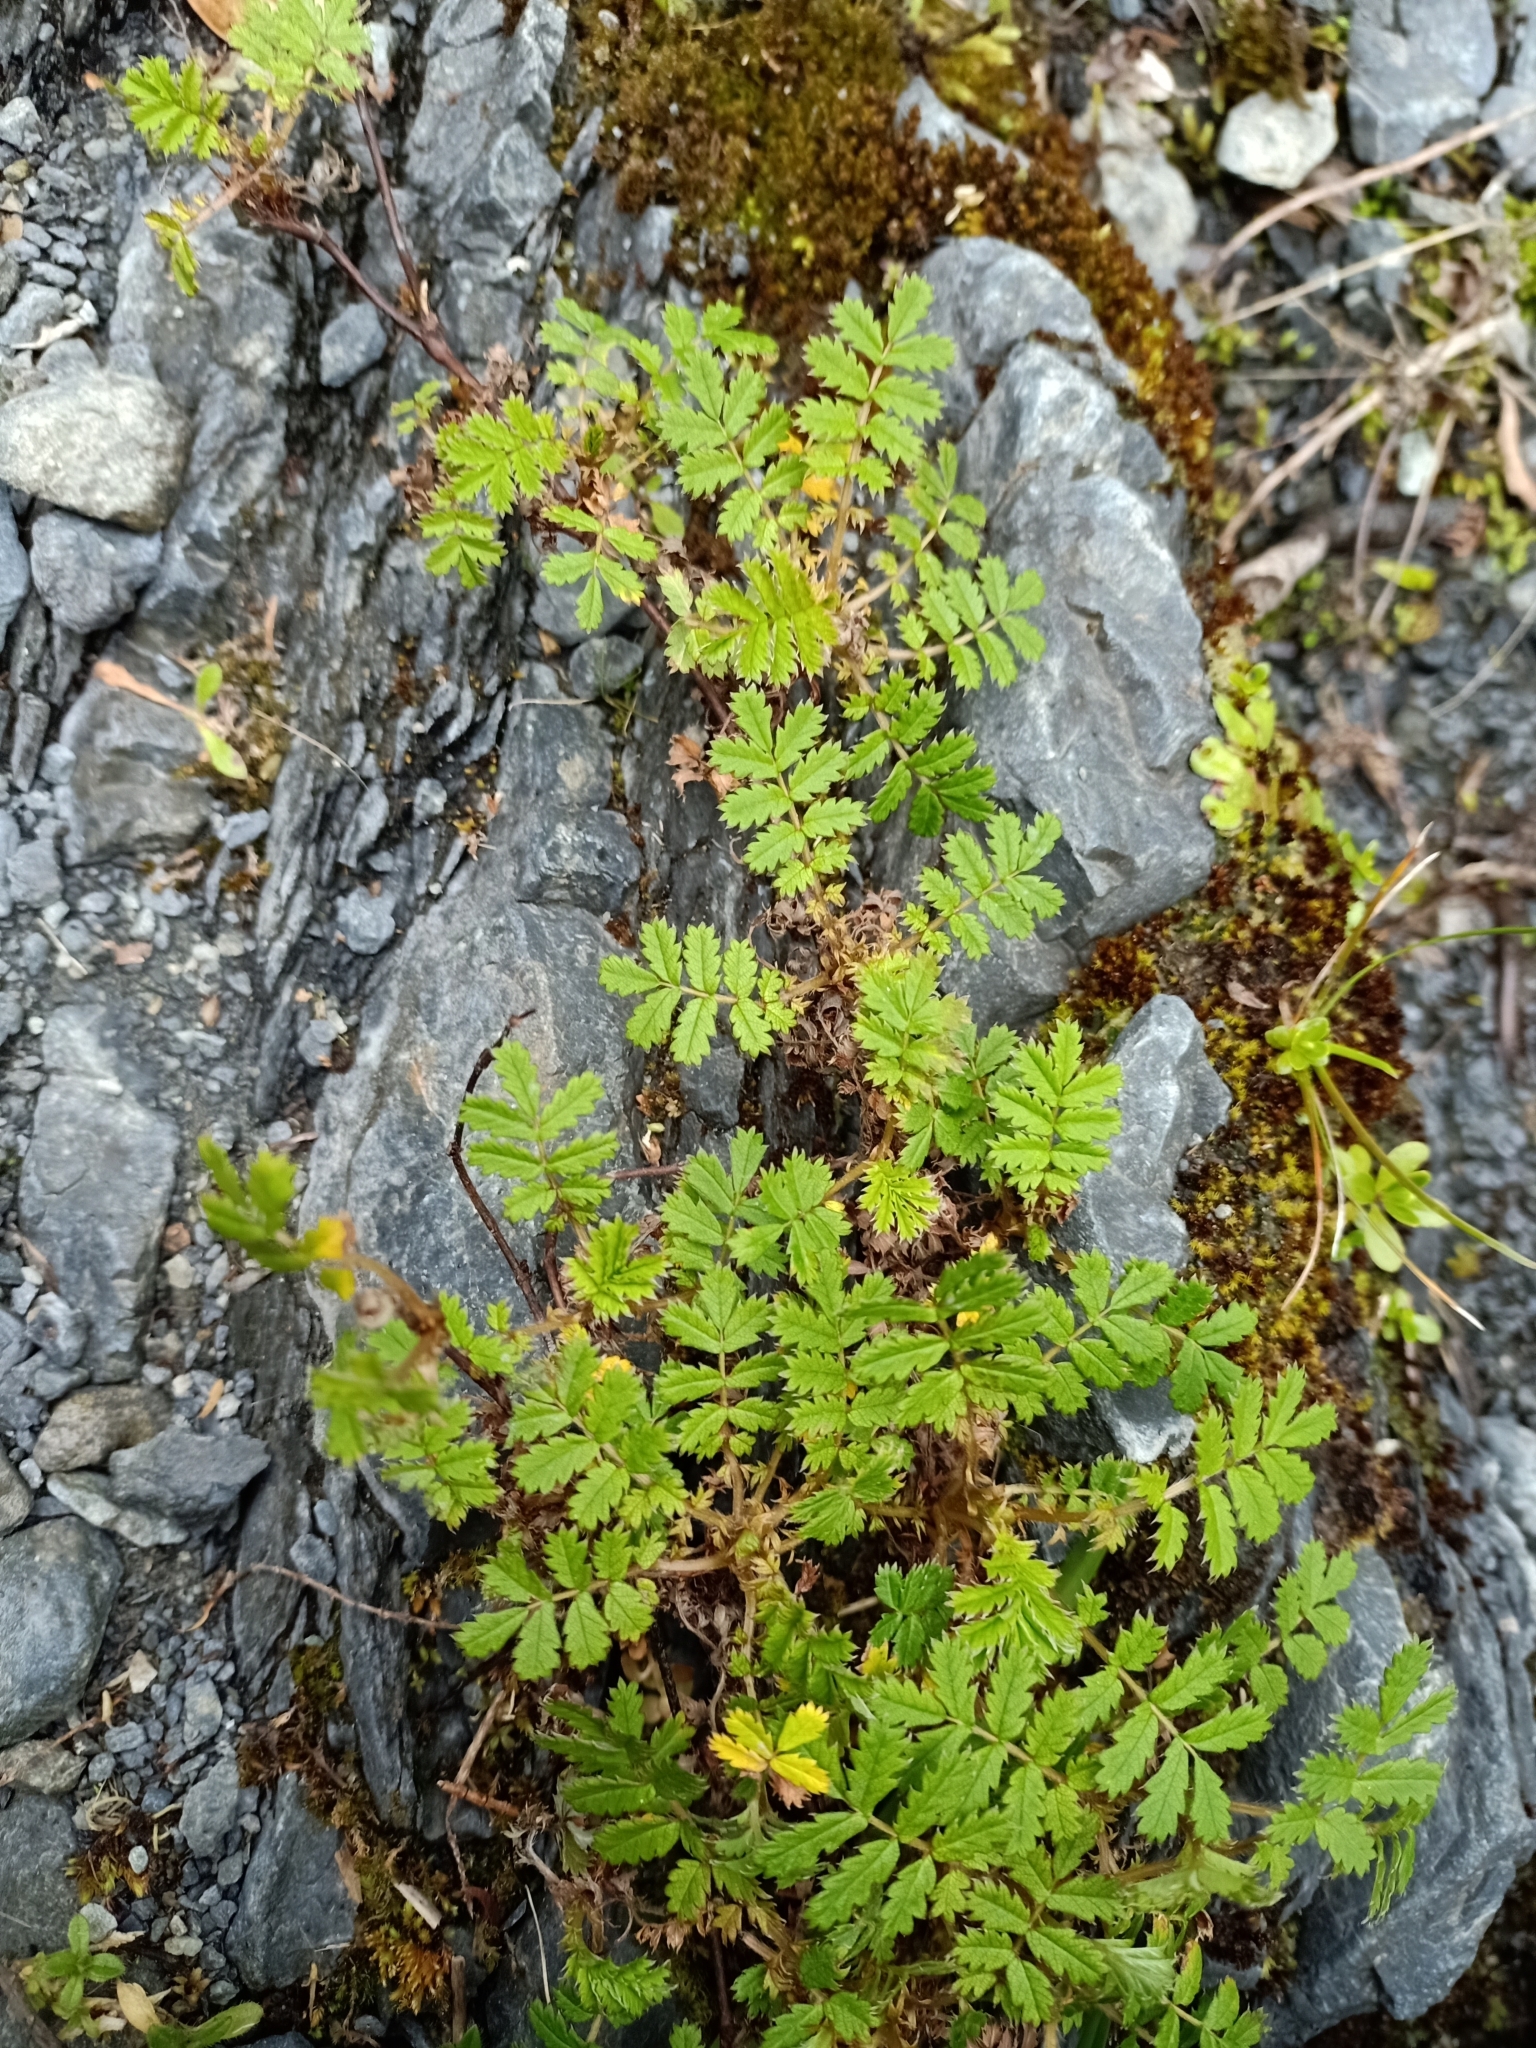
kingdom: Plantae
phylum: Tracheophyta
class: Magnoliopsida
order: Rosales
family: Rosaceae
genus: Acaena
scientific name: Acaena anserinifolia
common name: Bronze pirri-pirri-bur
